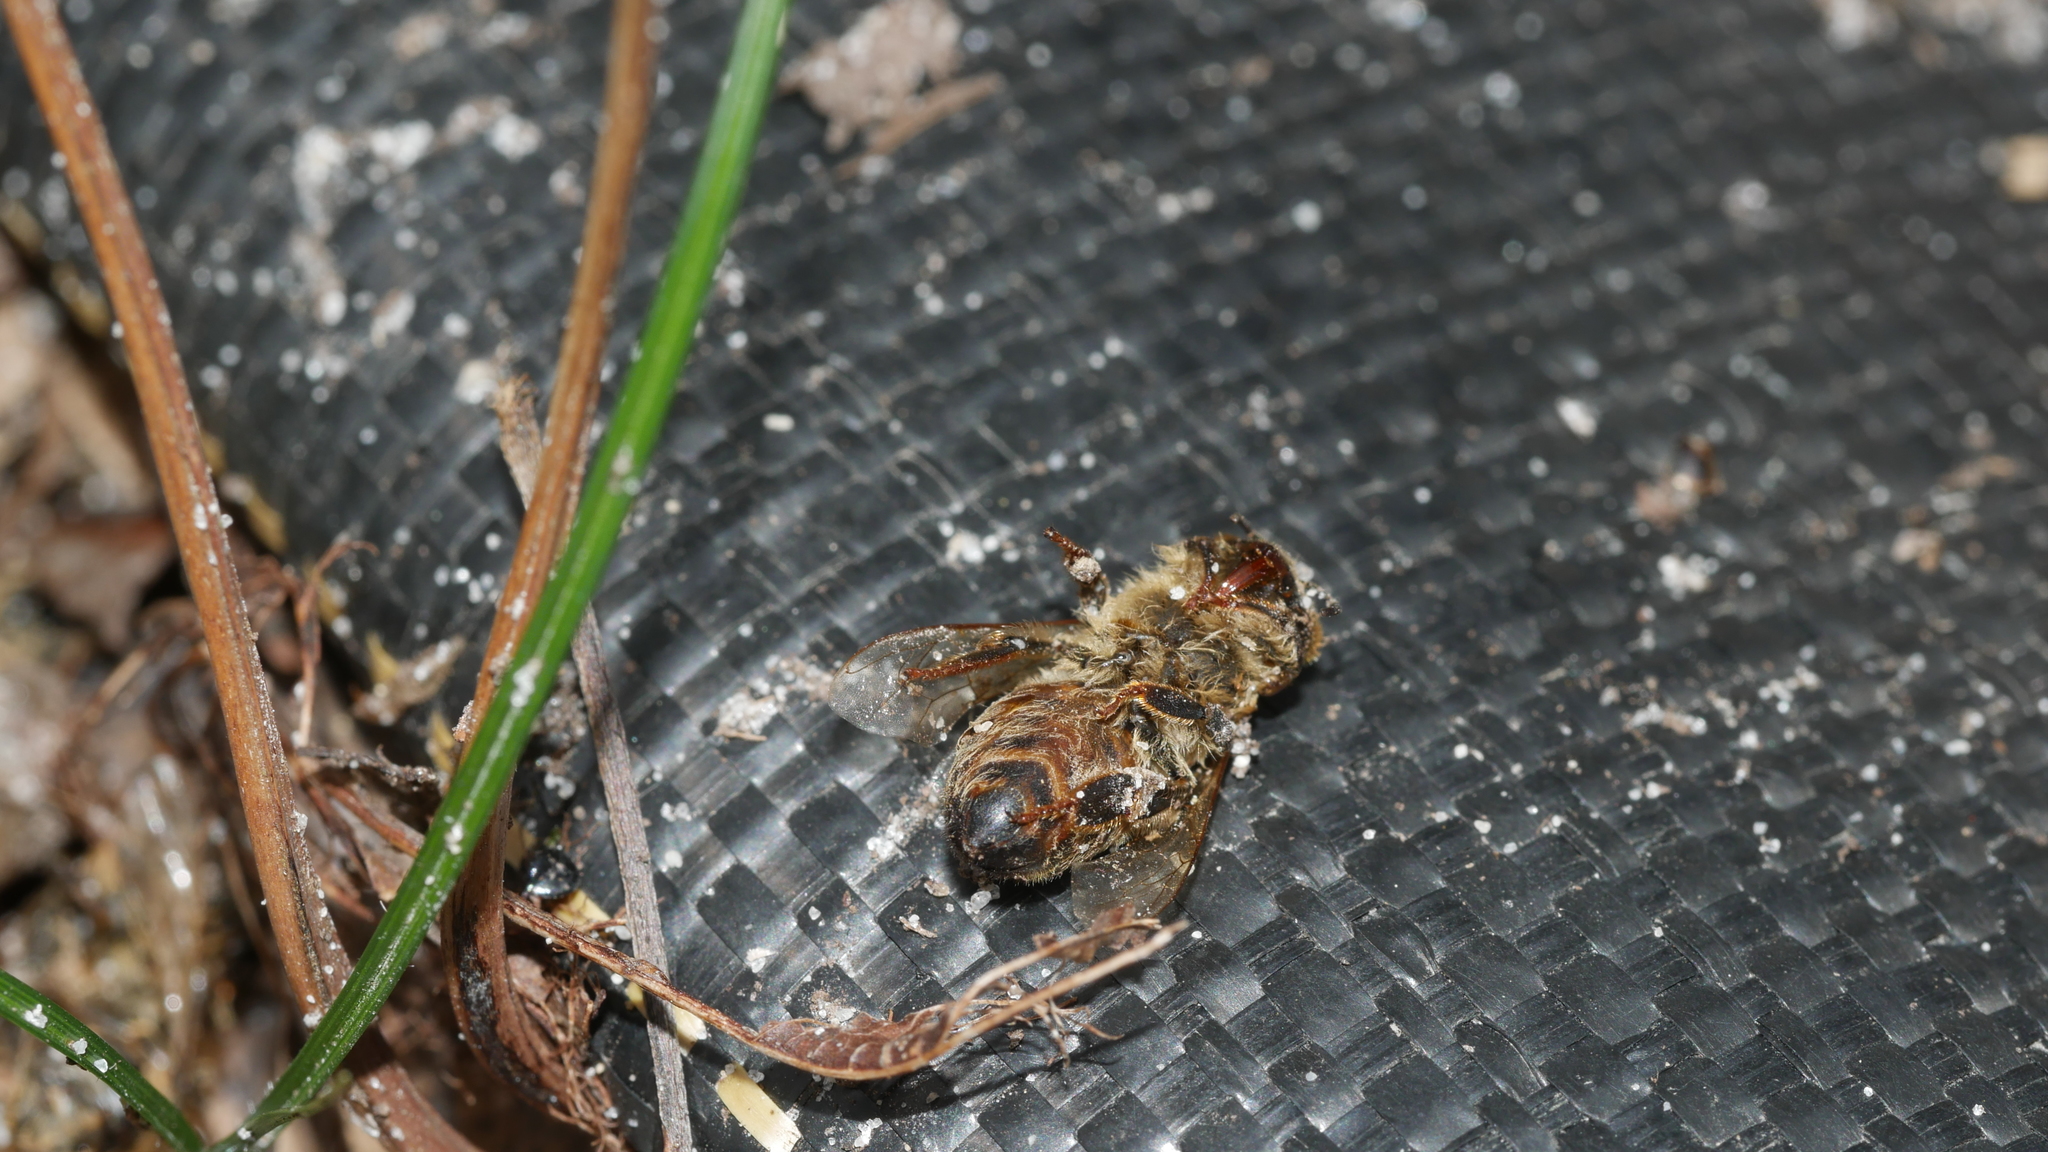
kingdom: Animalia
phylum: Arthropoda
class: Insecta
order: Hymenoptera
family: Apidae
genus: Apis
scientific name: Apis mellifera
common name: Honey bee
